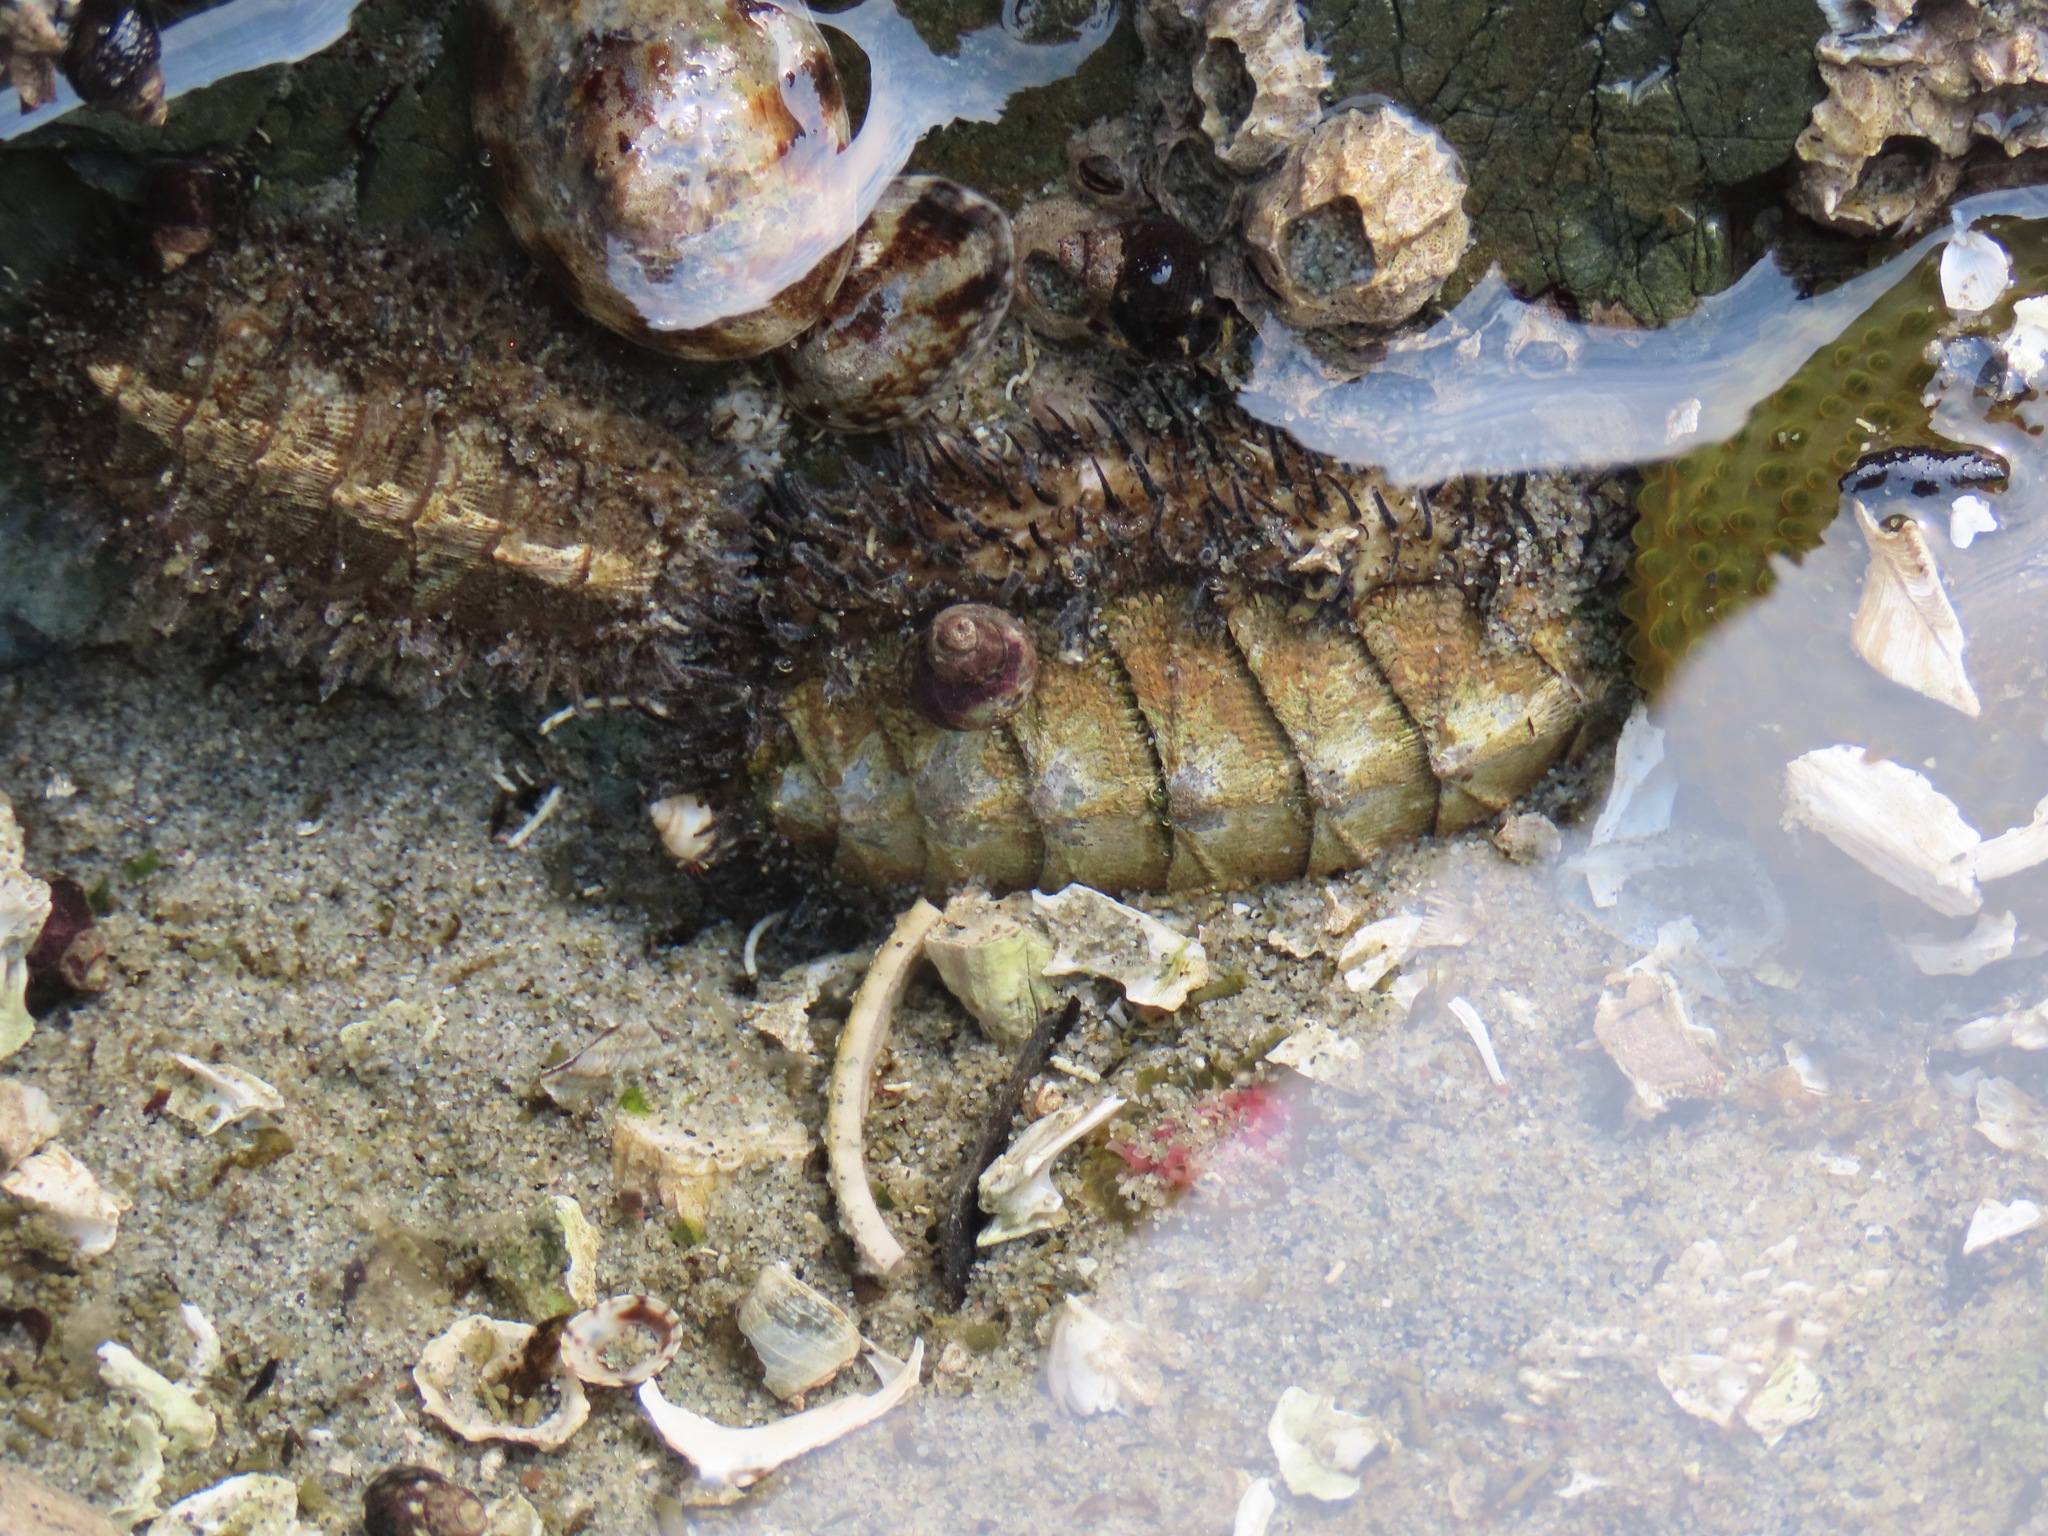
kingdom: Animalia
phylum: Mollusca
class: Polyplacophora
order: Chitonida
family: Mopaliidae
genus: Mopalia
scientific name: Mopalia muscosa
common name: Mossy chiton
